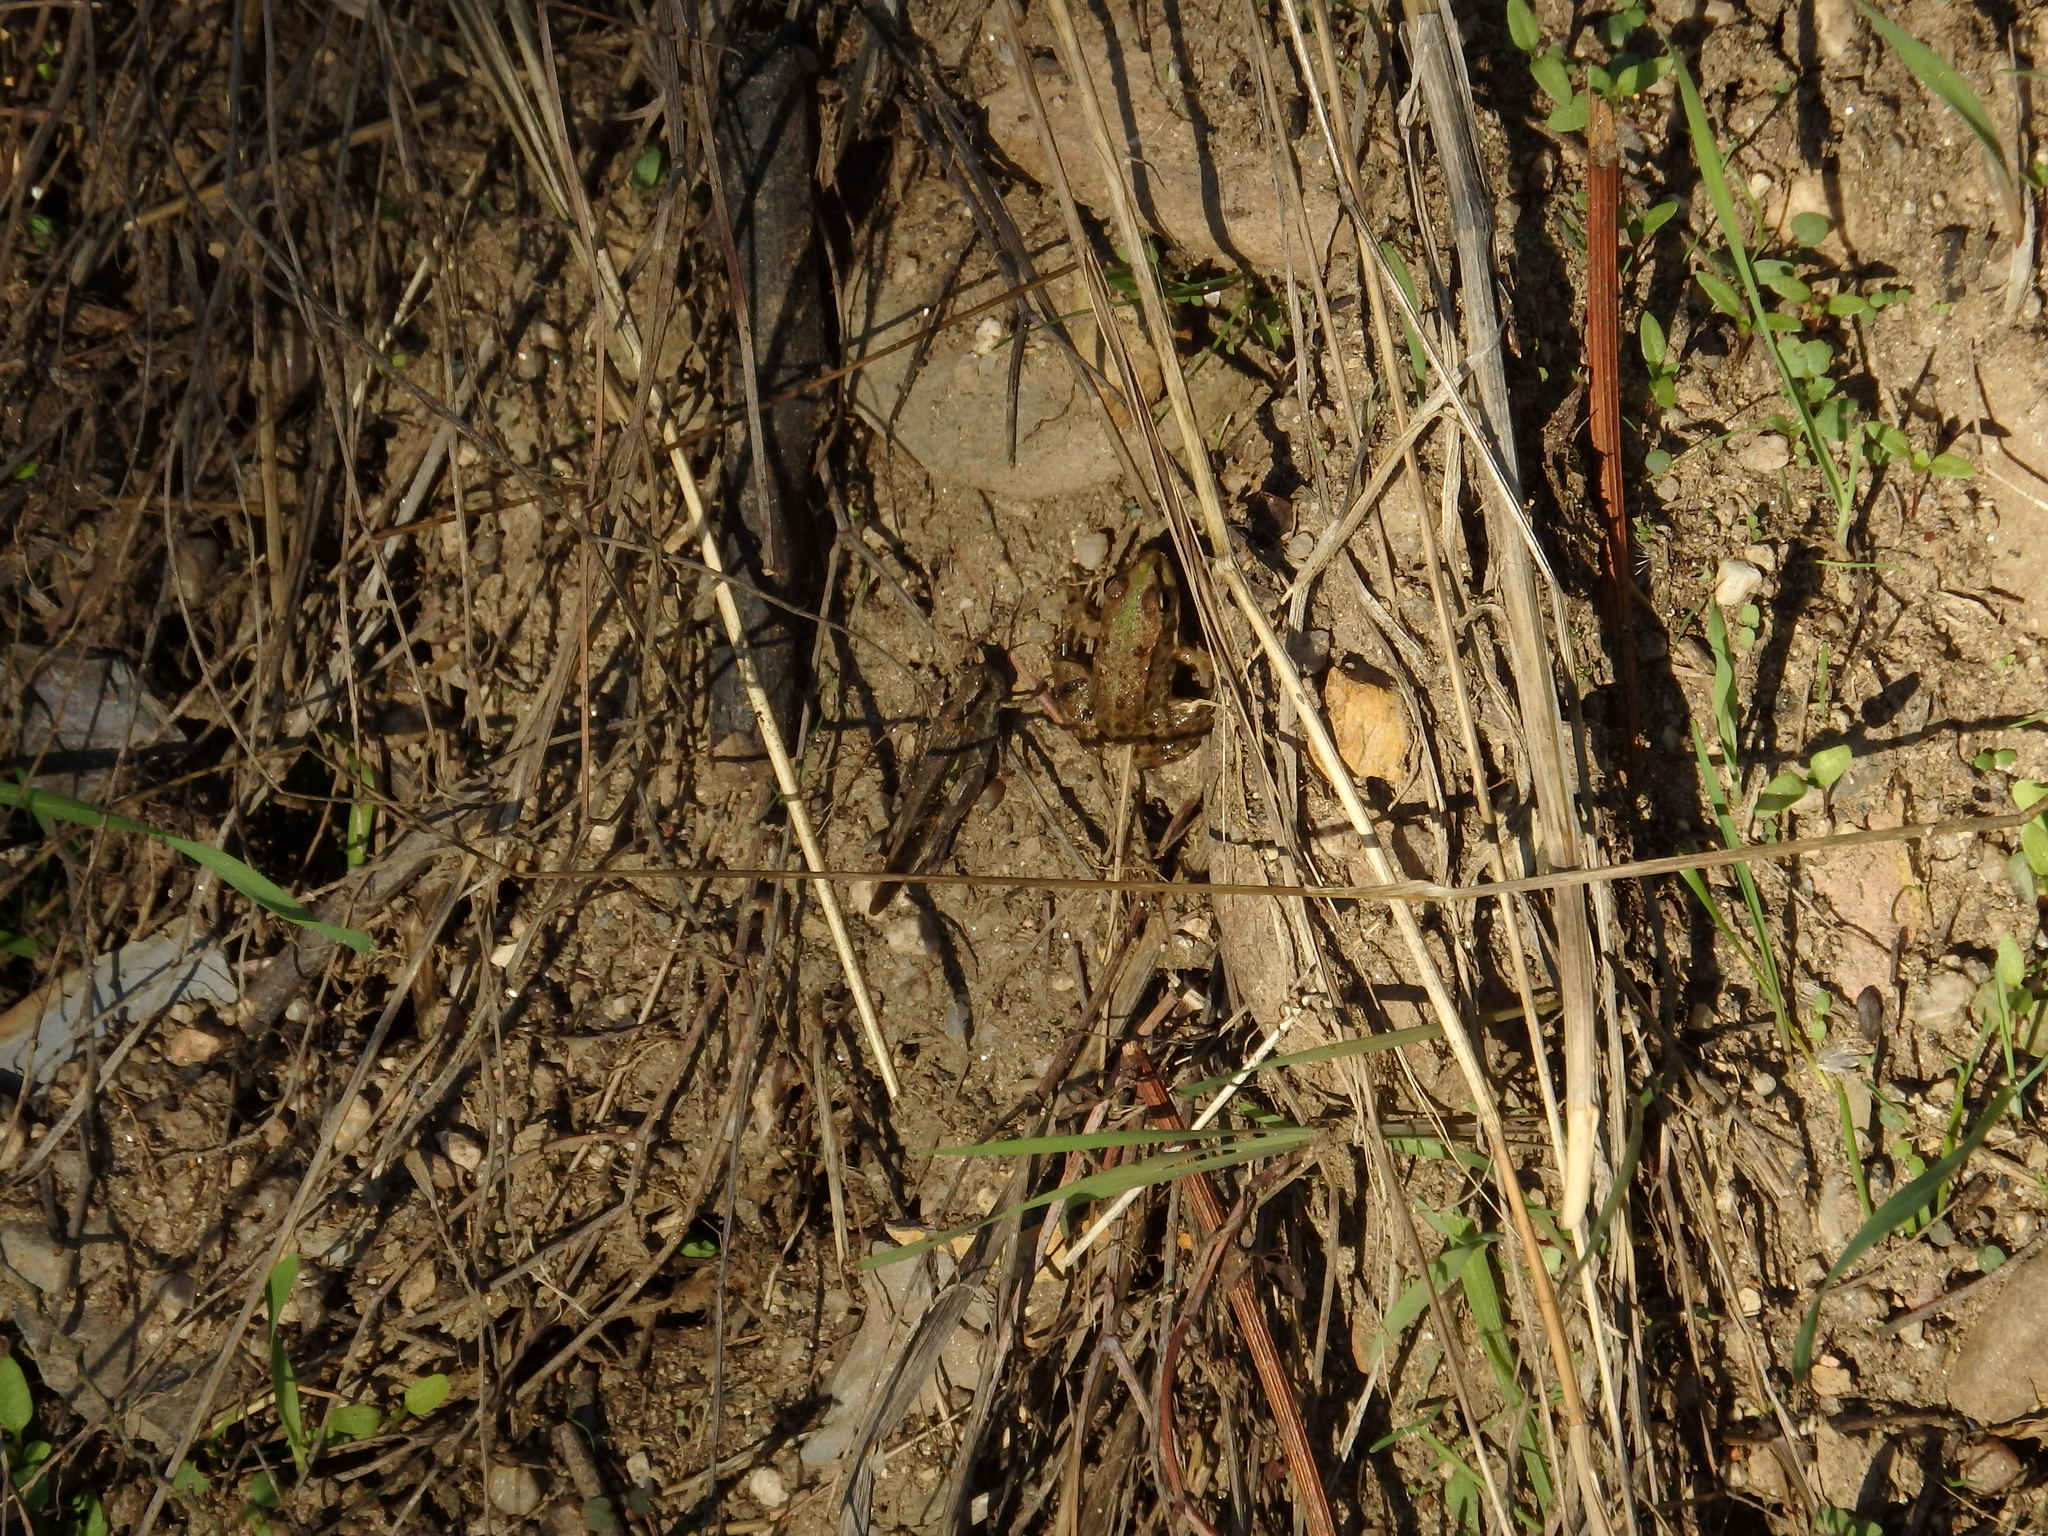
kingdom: Animalia
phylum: Arthropoda
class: Insecta
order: Orthoptera
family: Acrididae
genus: Aiolopus
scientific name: Aiolopus puissanti
